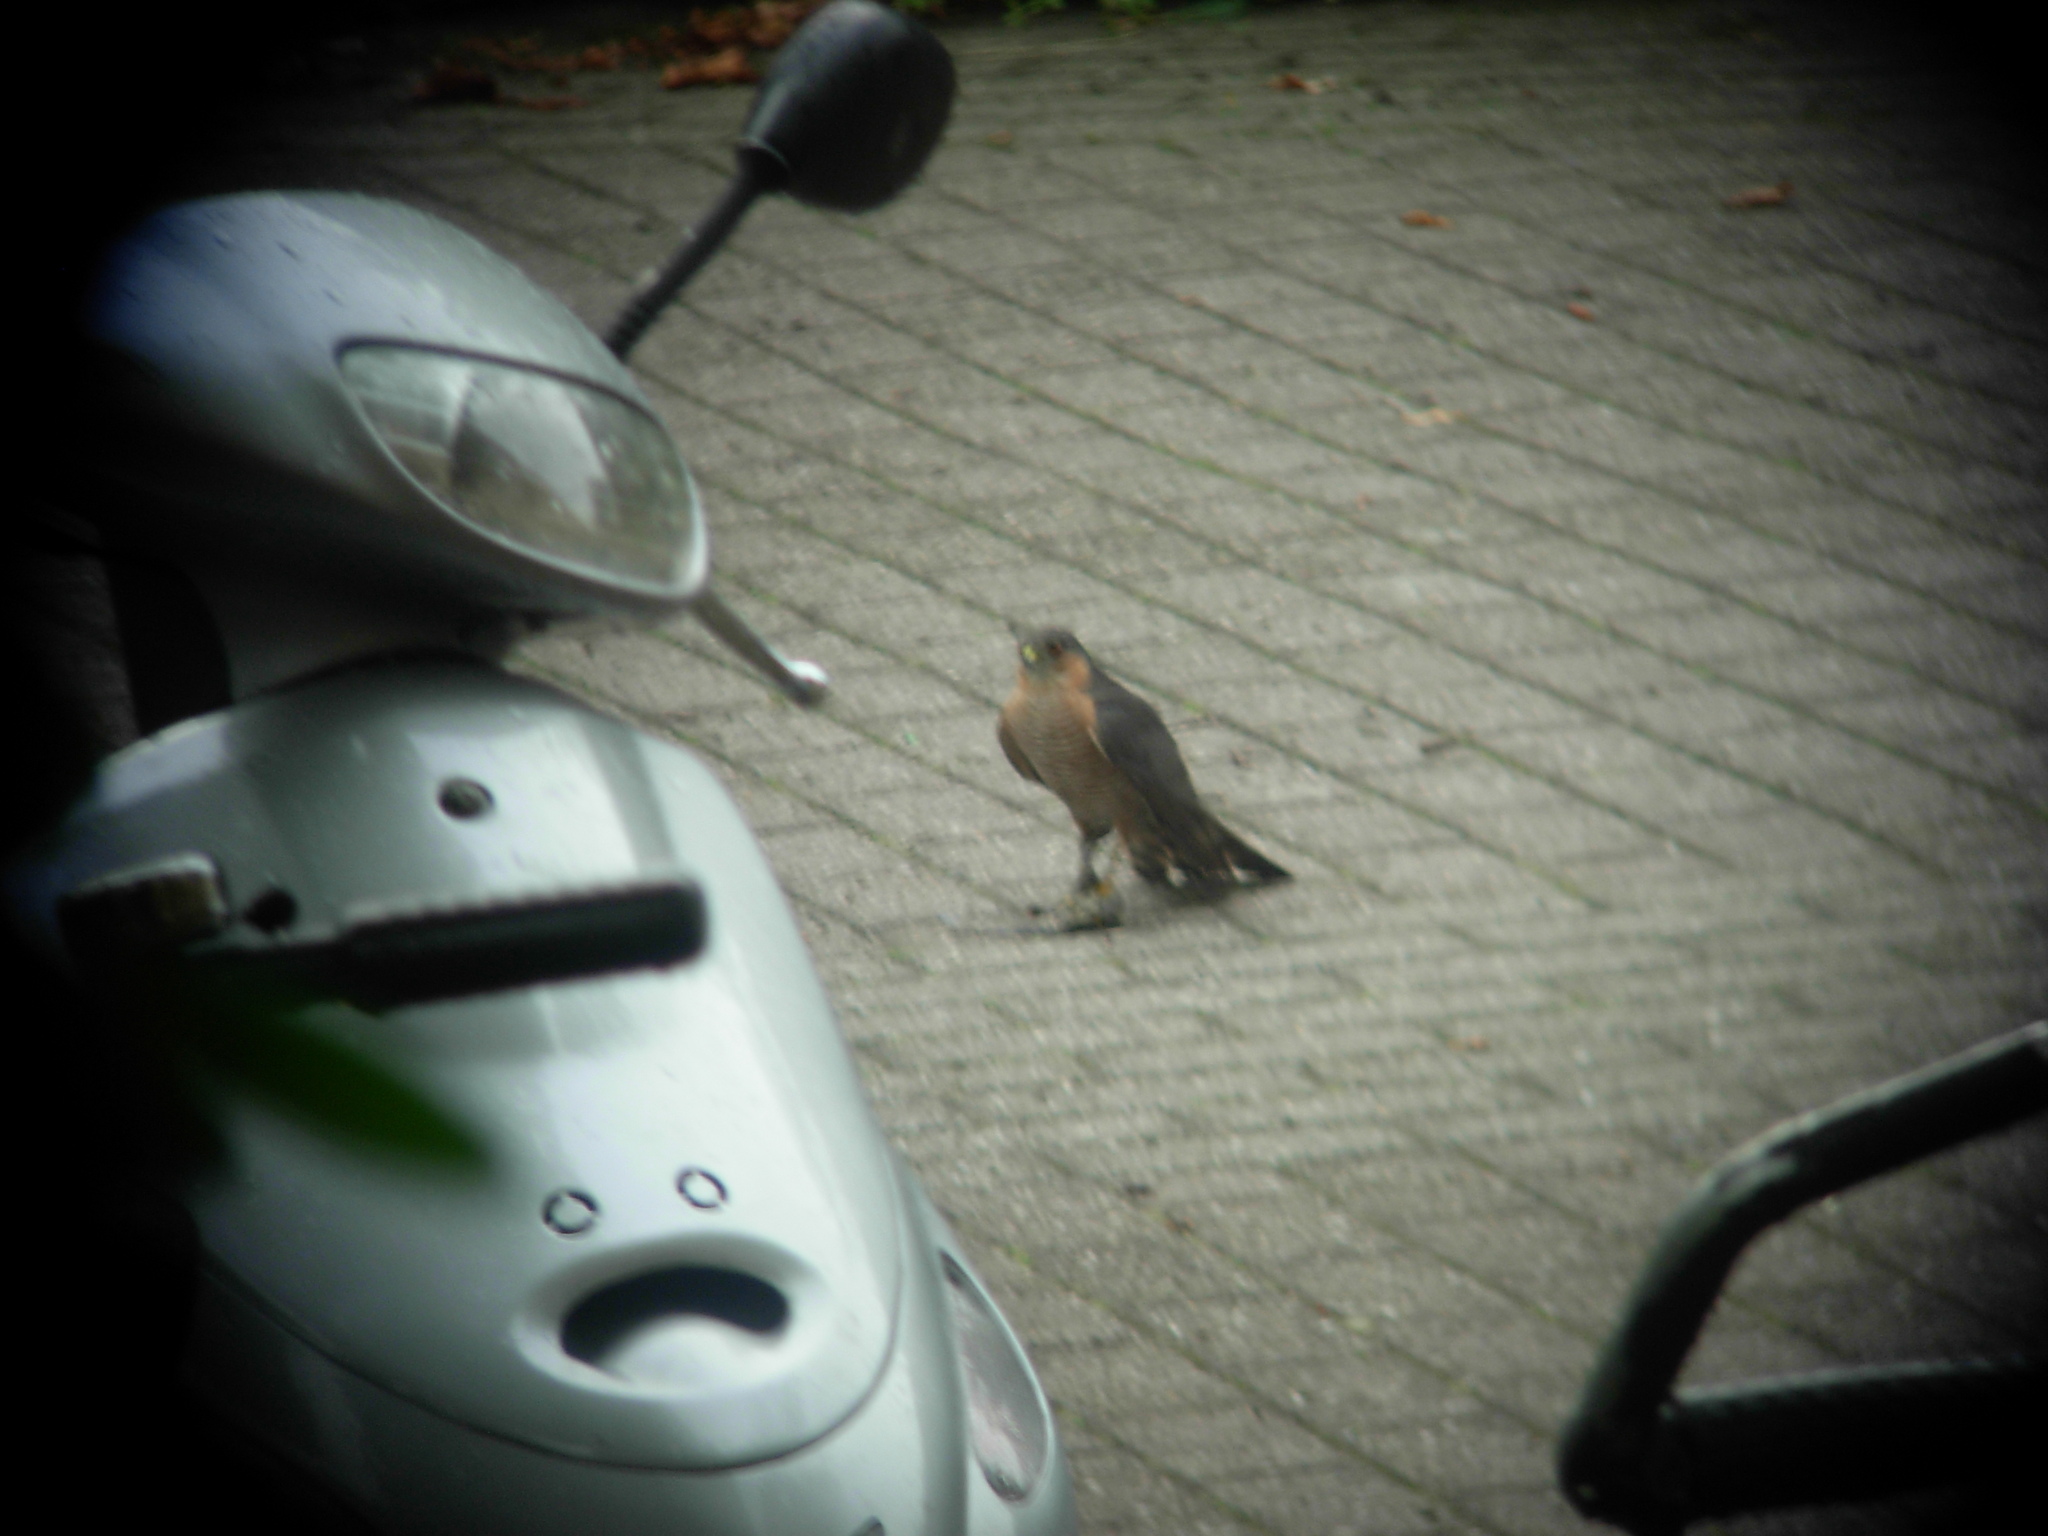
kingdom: Animalia
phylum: Chordata
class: Aves
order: Accipitriformes
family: Accipitridae
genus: Accipiter
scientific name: Accipiter nisus
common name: Eurasian sparrowhawk
